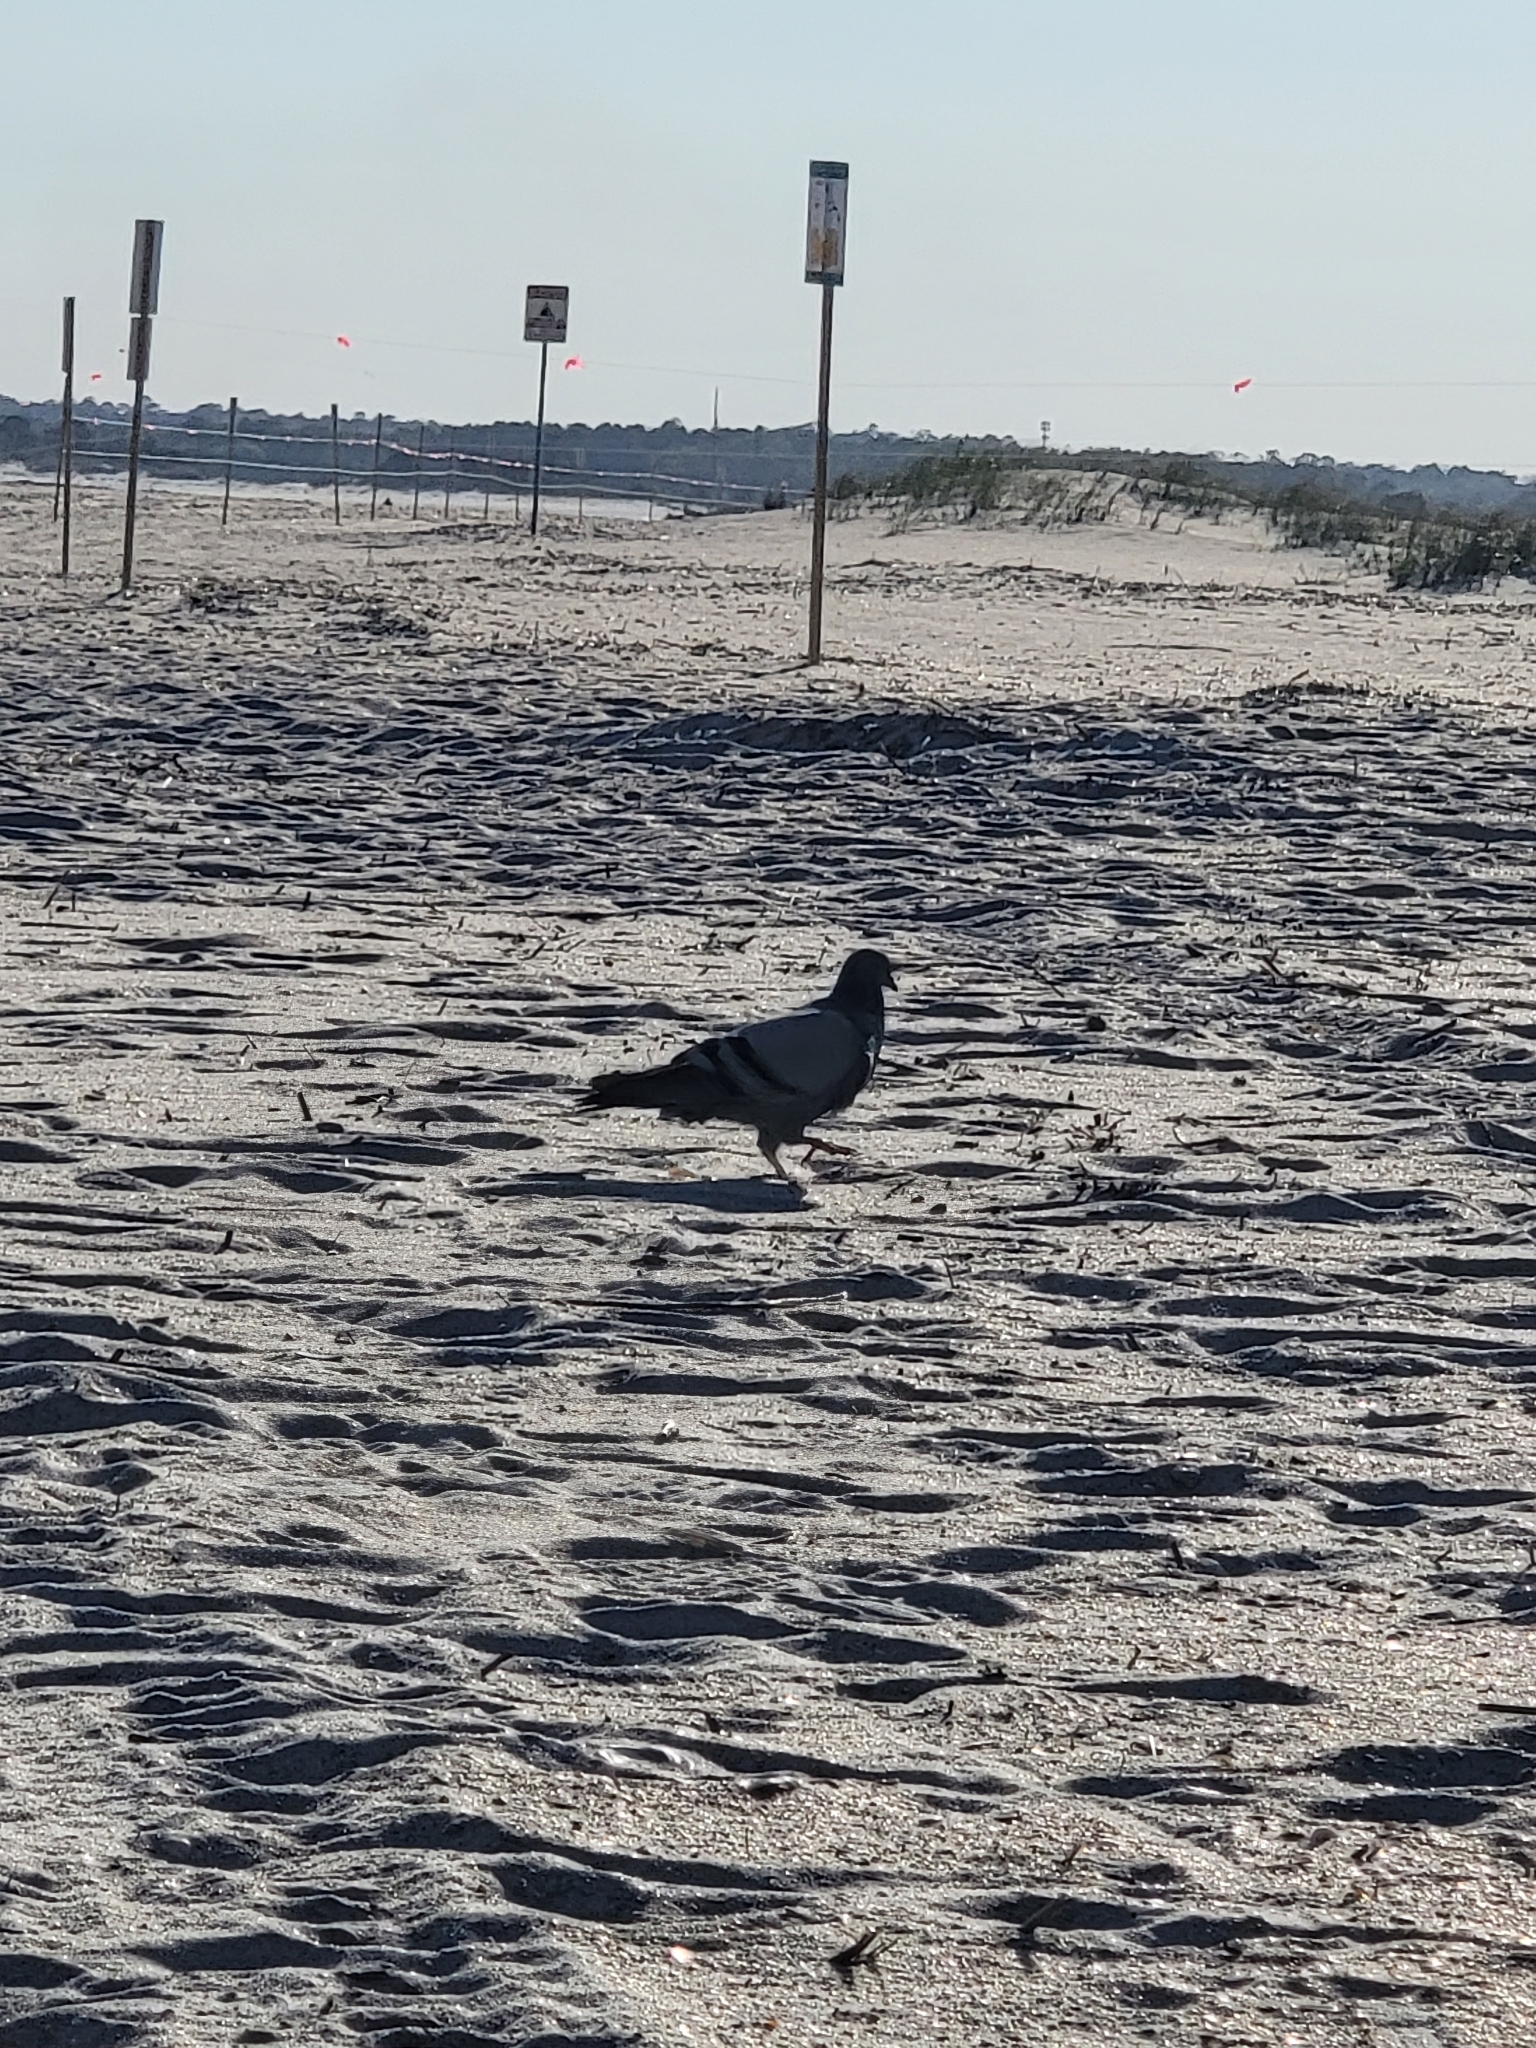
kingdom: Animalia
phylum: Chordata
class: Aves
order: Columbiformes
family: Columbidae
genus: Columba
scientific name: Columba livia
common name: Rock pigeon
